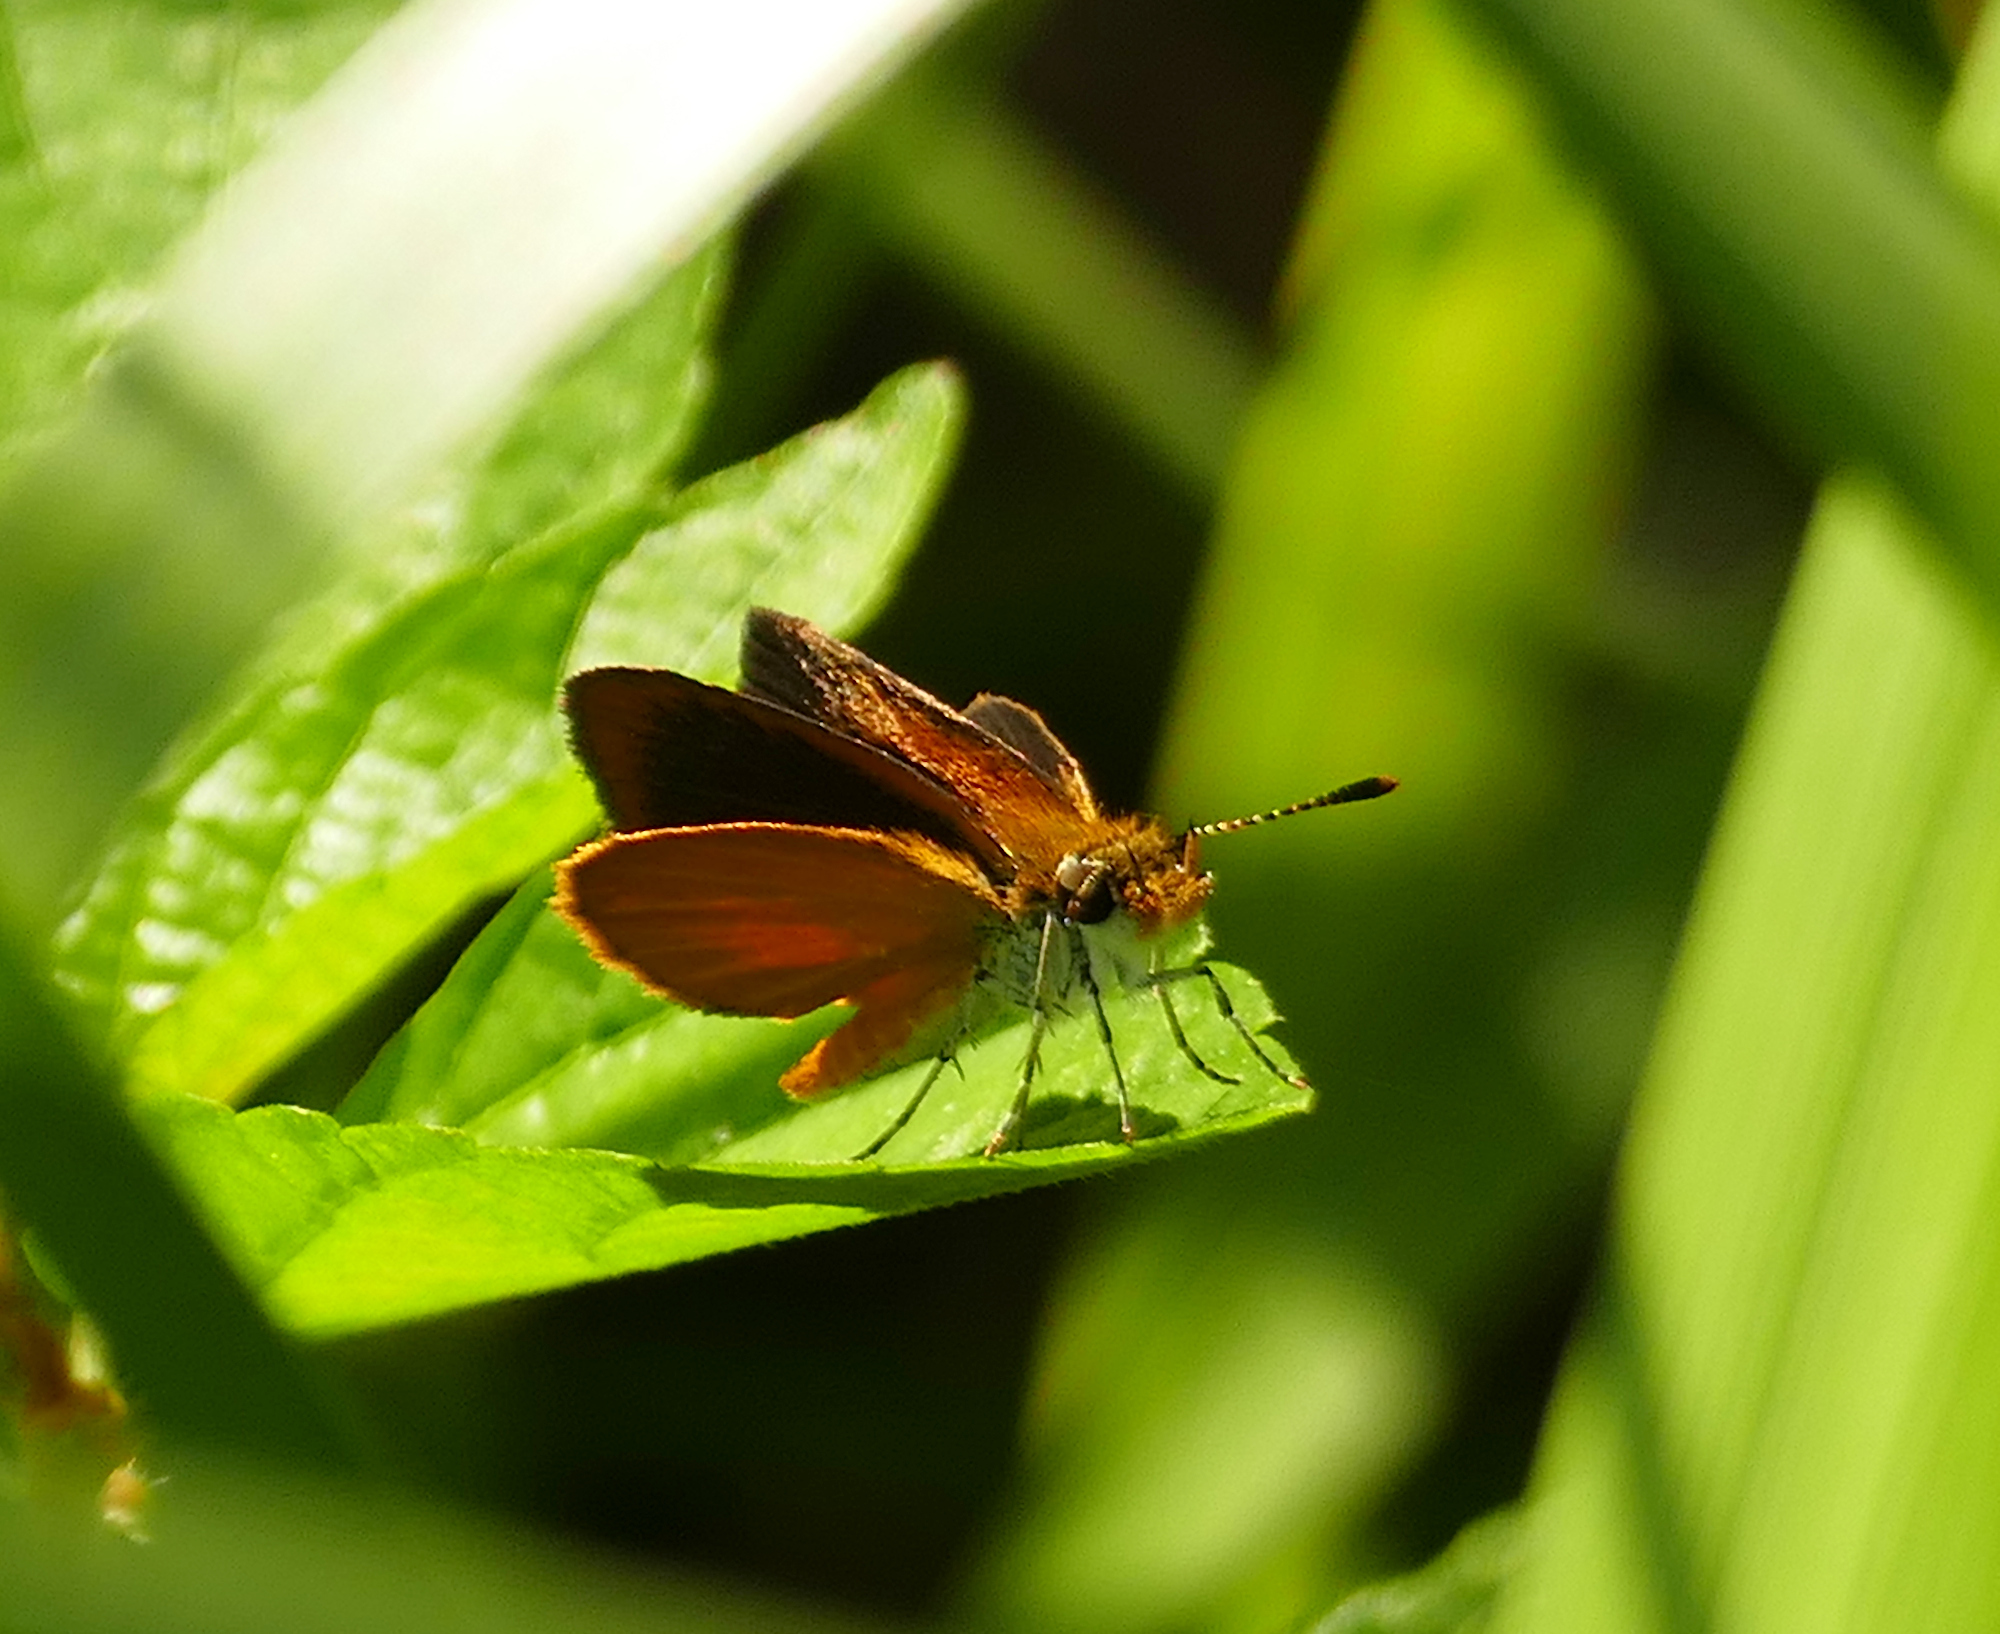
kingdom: Animalia
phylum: Arthropoda
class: Insecta
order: Lepidoptera
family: Hesperiidae
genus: Ancyloxypha
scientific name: Ancyloxypha numitor
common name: Least skipper
